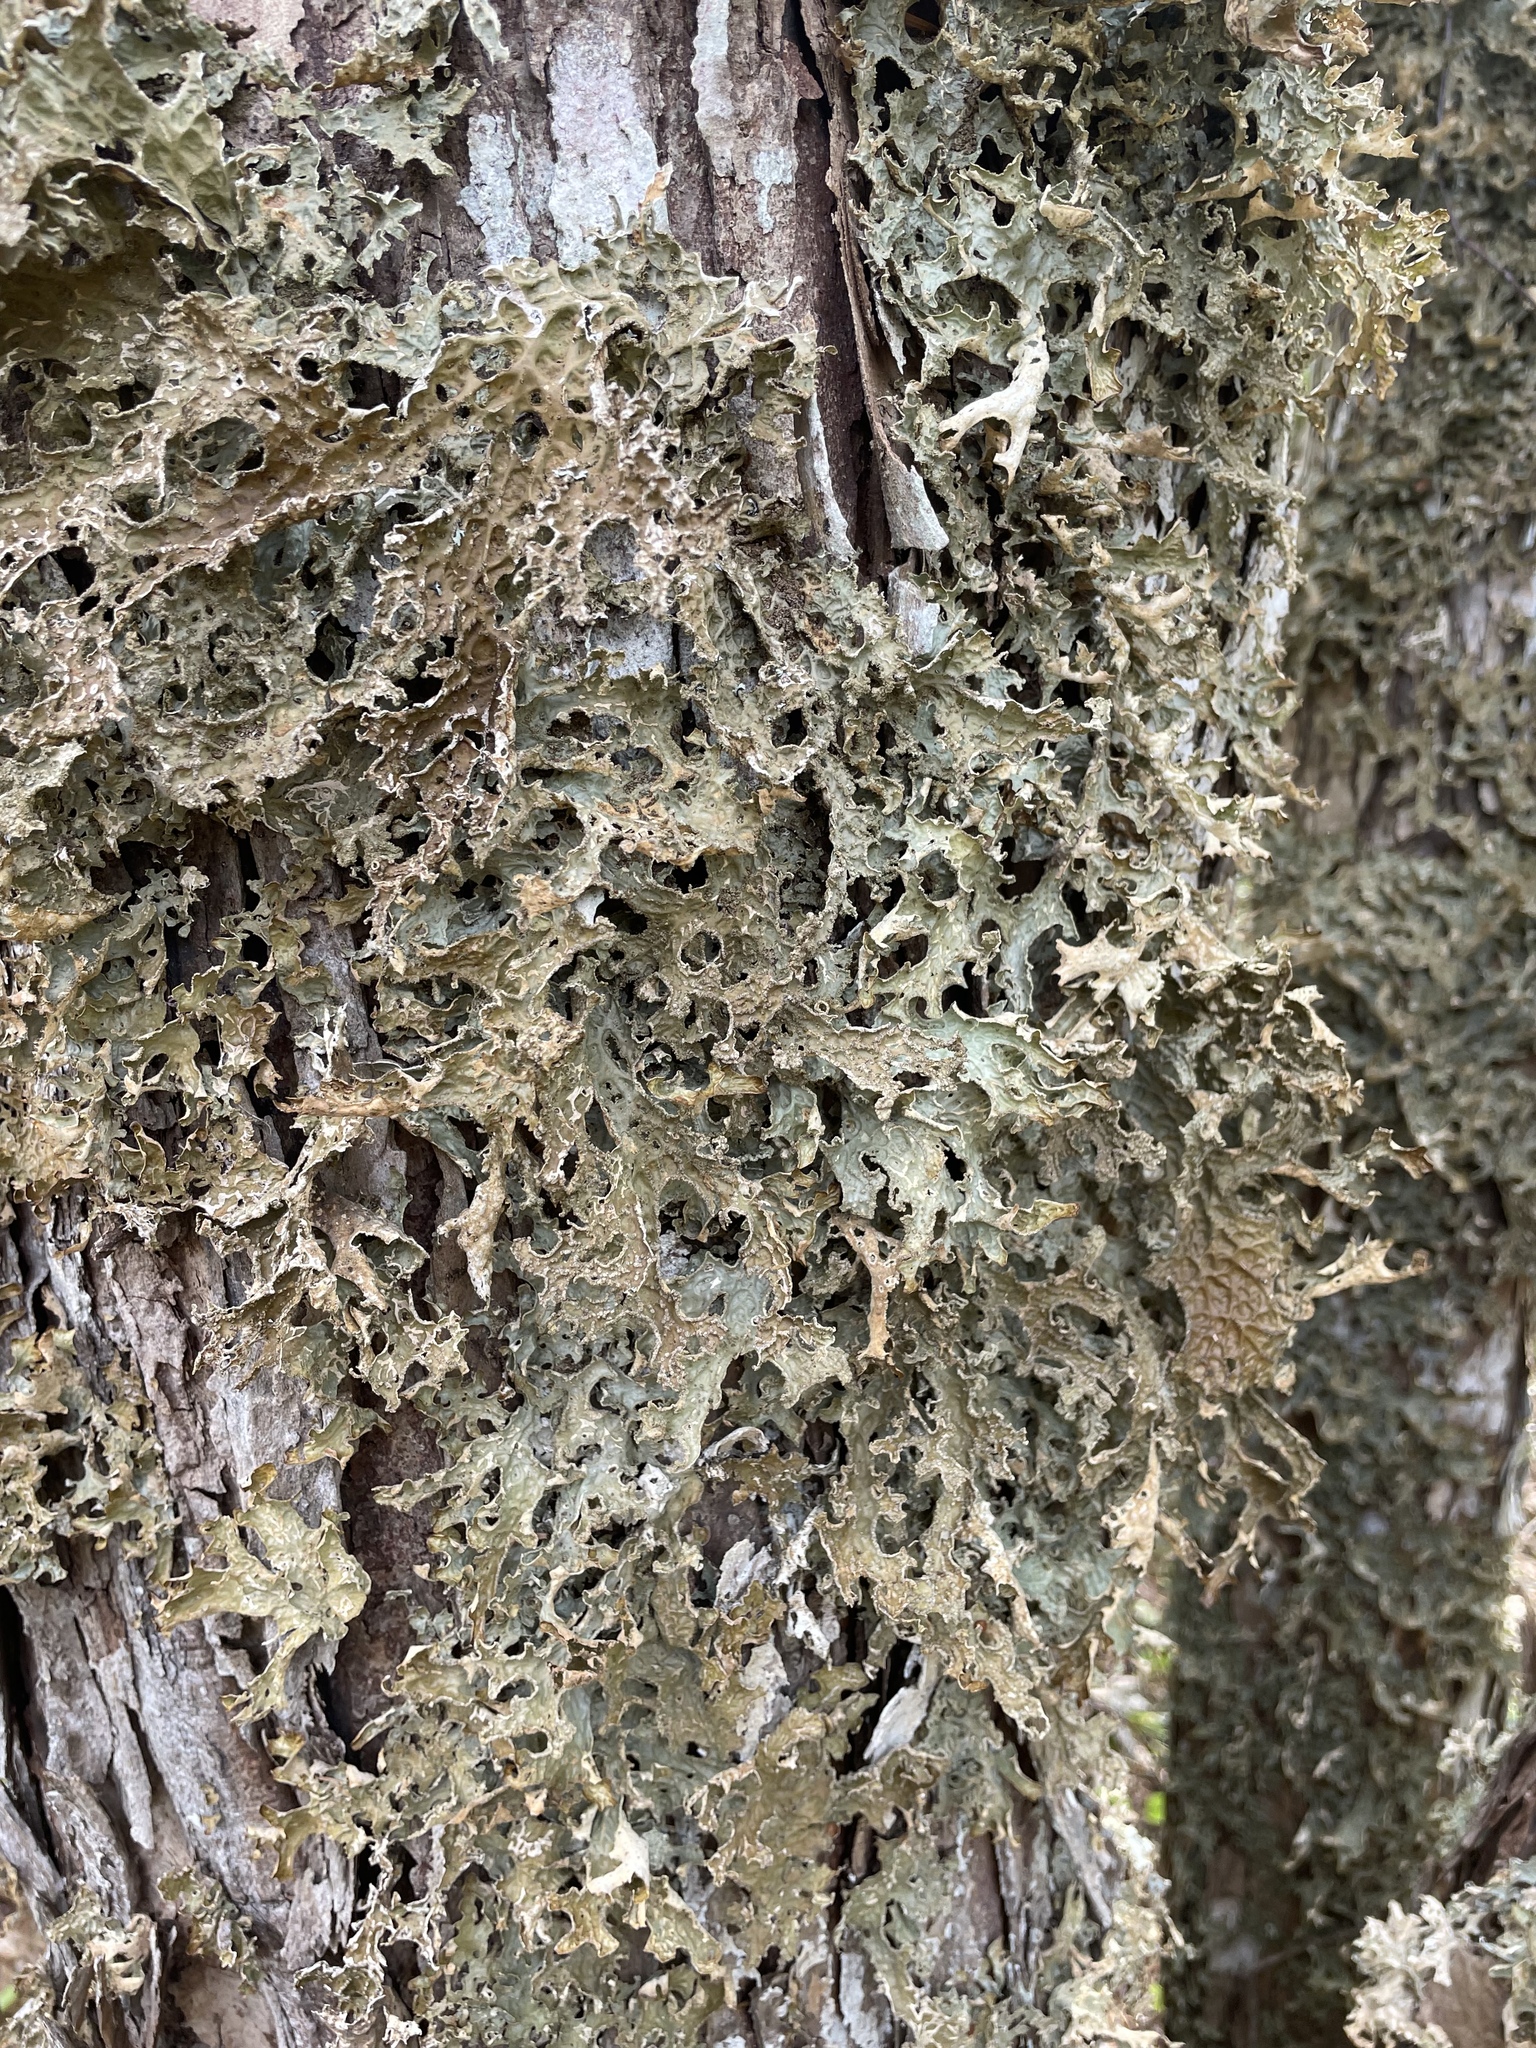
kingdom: Fungi
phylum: Ascomycota
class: Lecanoromycetes
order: Peltigerales
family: Lobariaceae
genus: Lobaria
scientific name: Lobaria pulmonaria
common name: Lungwort
